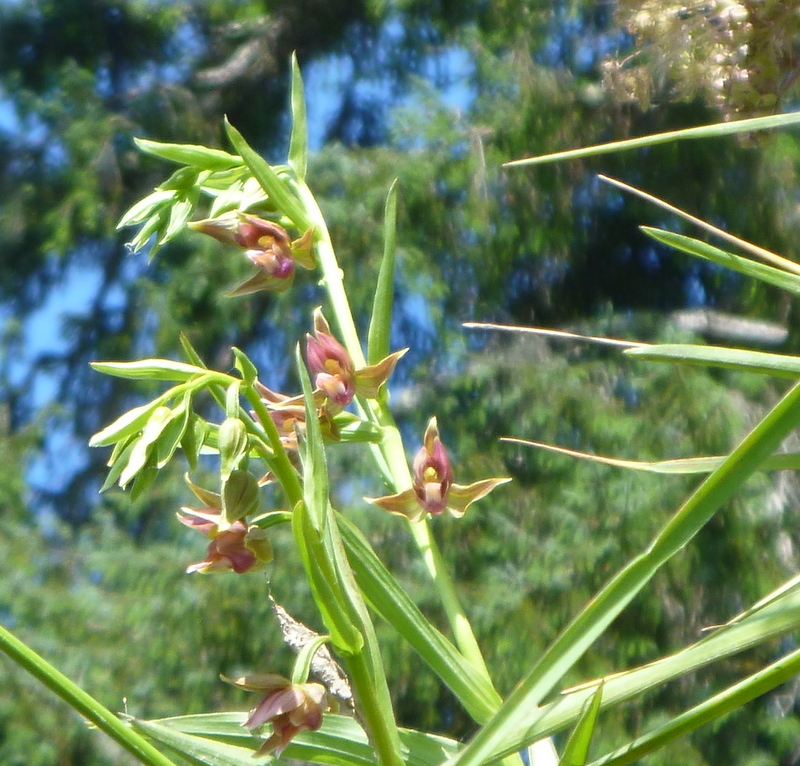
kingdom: Plantae
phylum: Tracheophyta
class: Liliopsida
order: Asparagales
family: Orchidaceae
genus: Epipactis
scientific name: Epipactis gigantea
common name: Chatterbox
